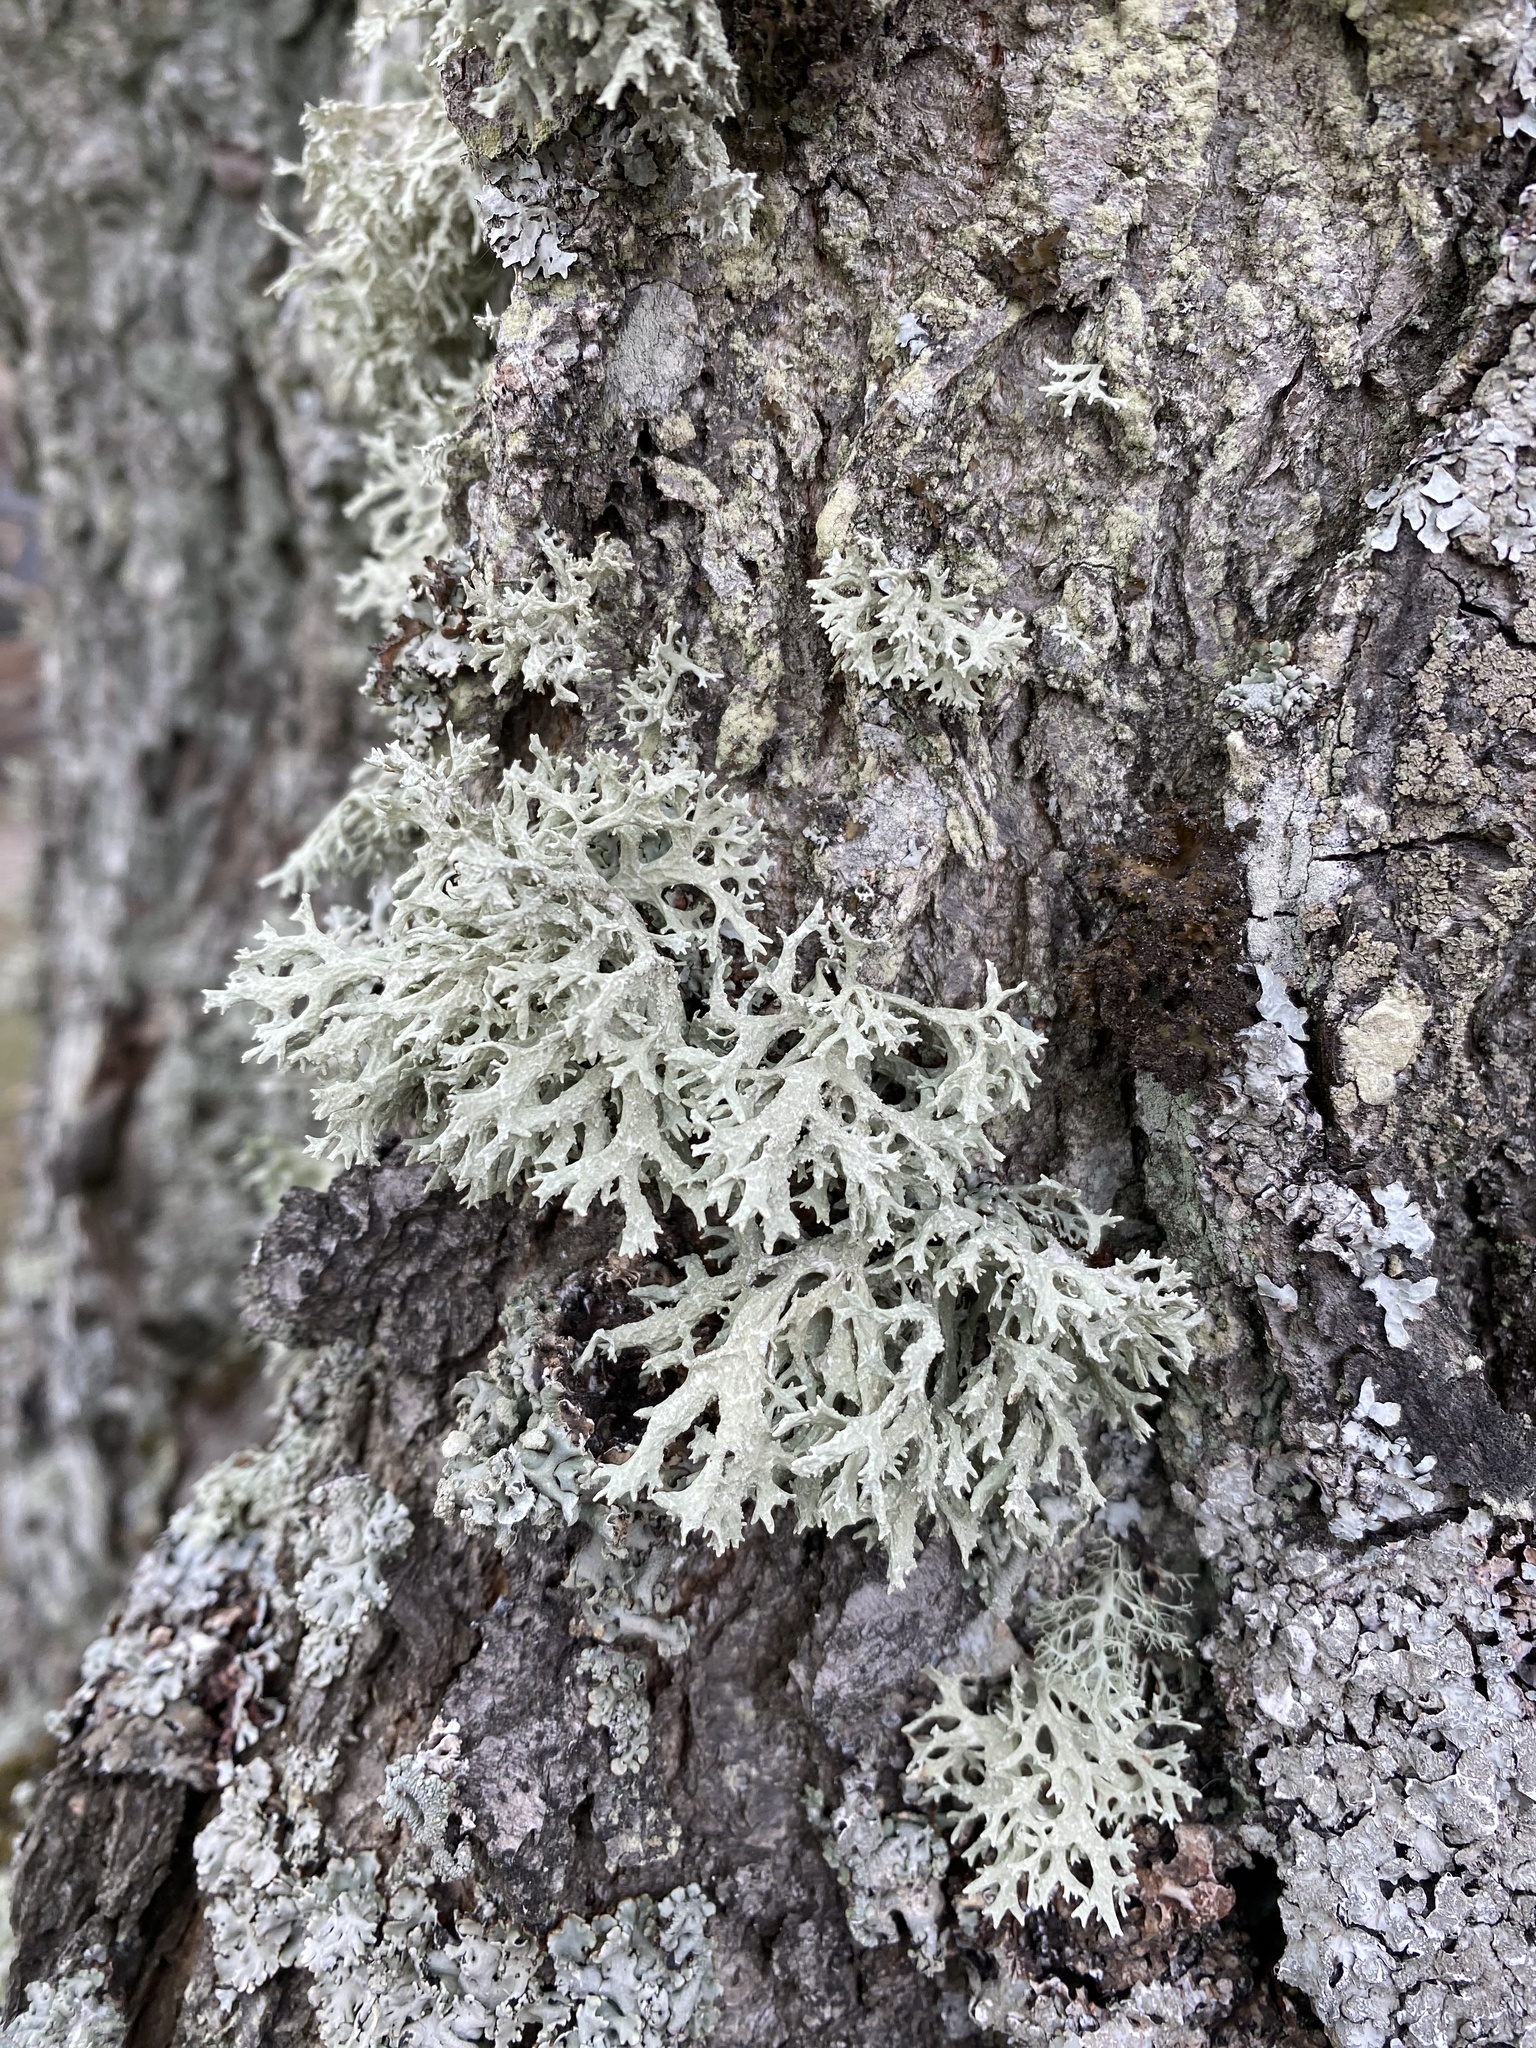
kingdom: Fungi
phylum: Ascomycota
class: Lecanoromycetes
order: Lecanorales
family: Parmeliaceae
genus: Evernia
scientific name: Evernia prunastri
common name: Oak moss
